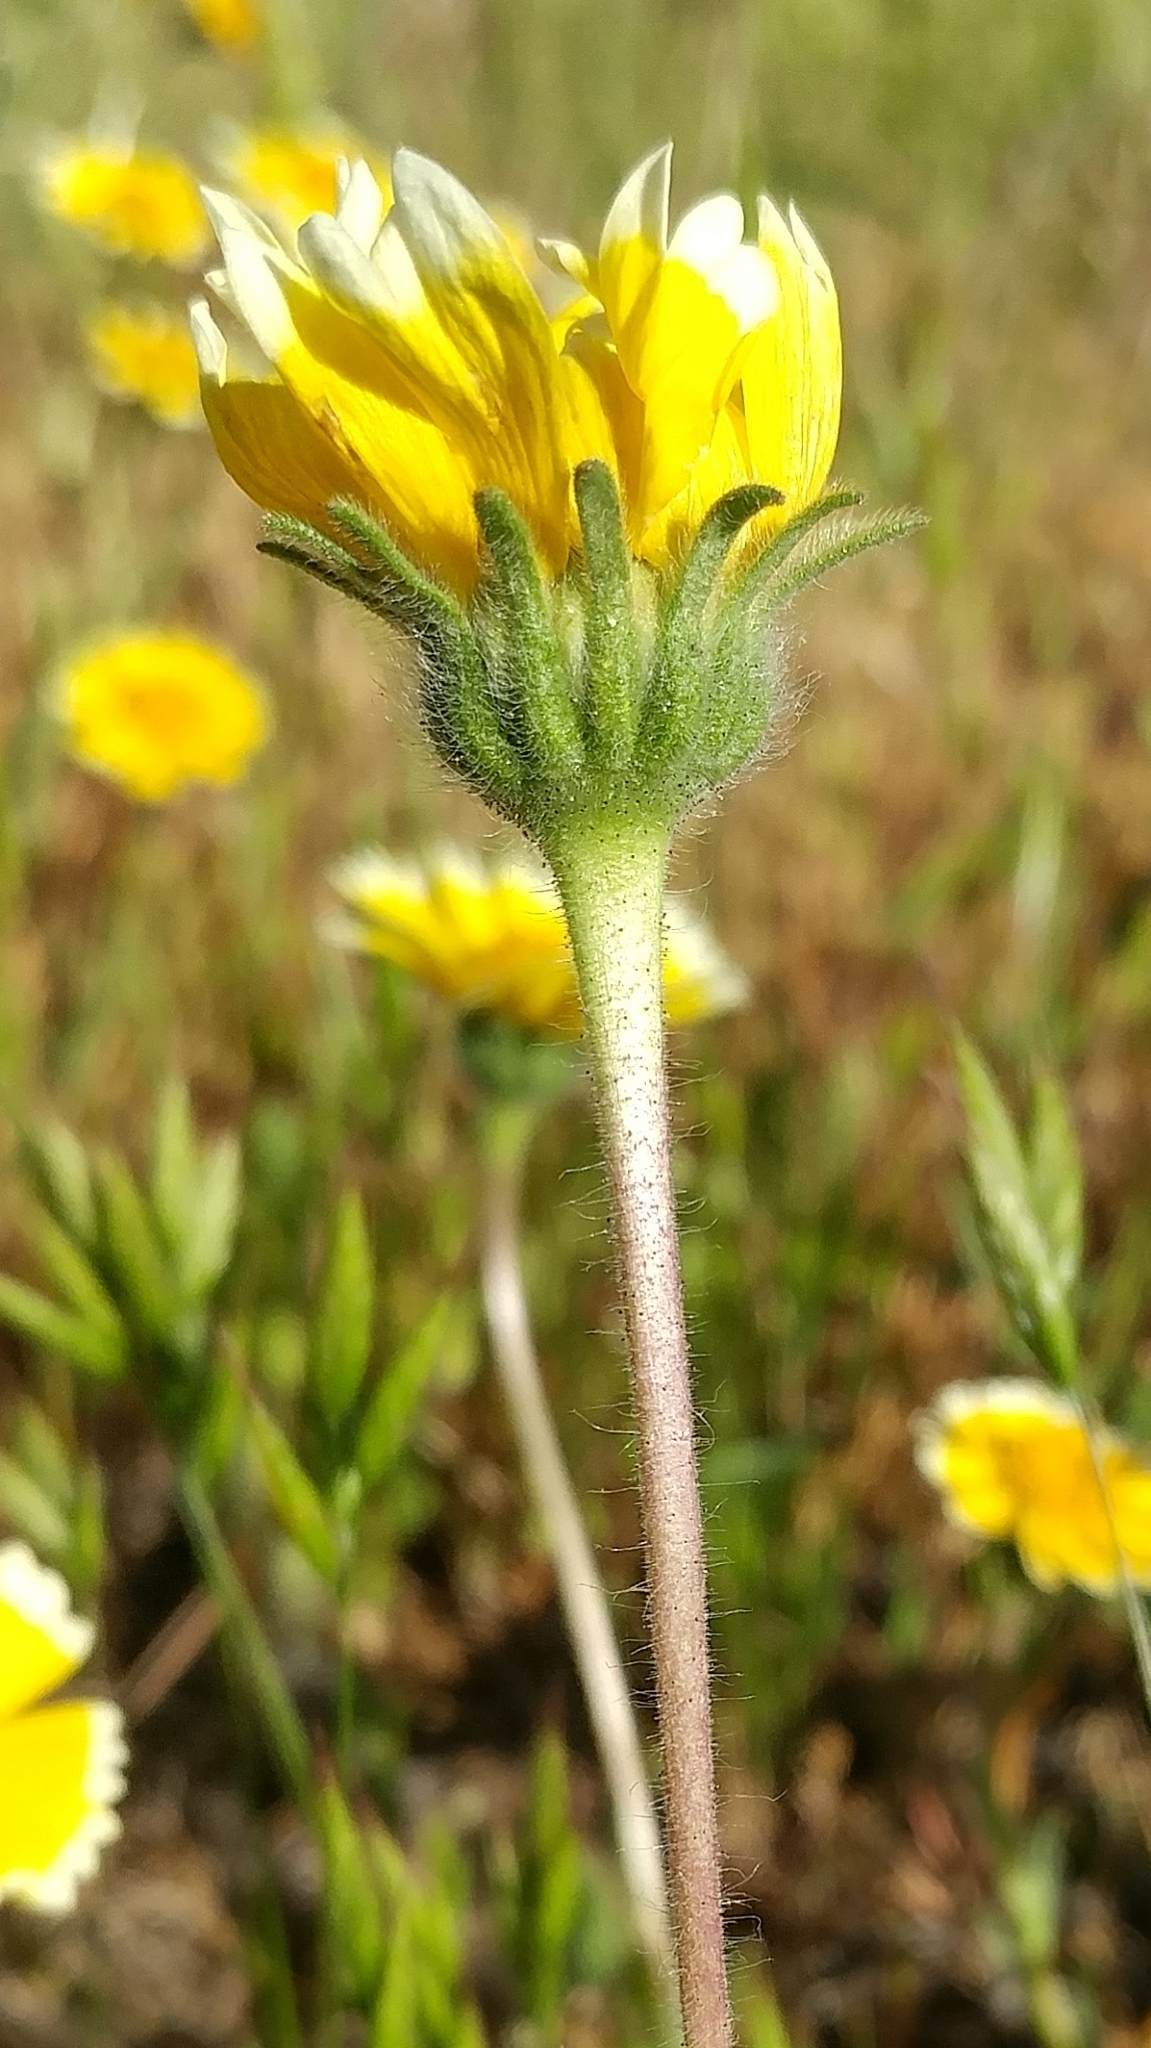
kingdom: Plantae
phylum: Tracheophyta
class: Magnoliopsida
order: Asterales
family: Asteraceae
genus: Layia
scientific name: Layia platyglossa
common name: Tidy-tips
